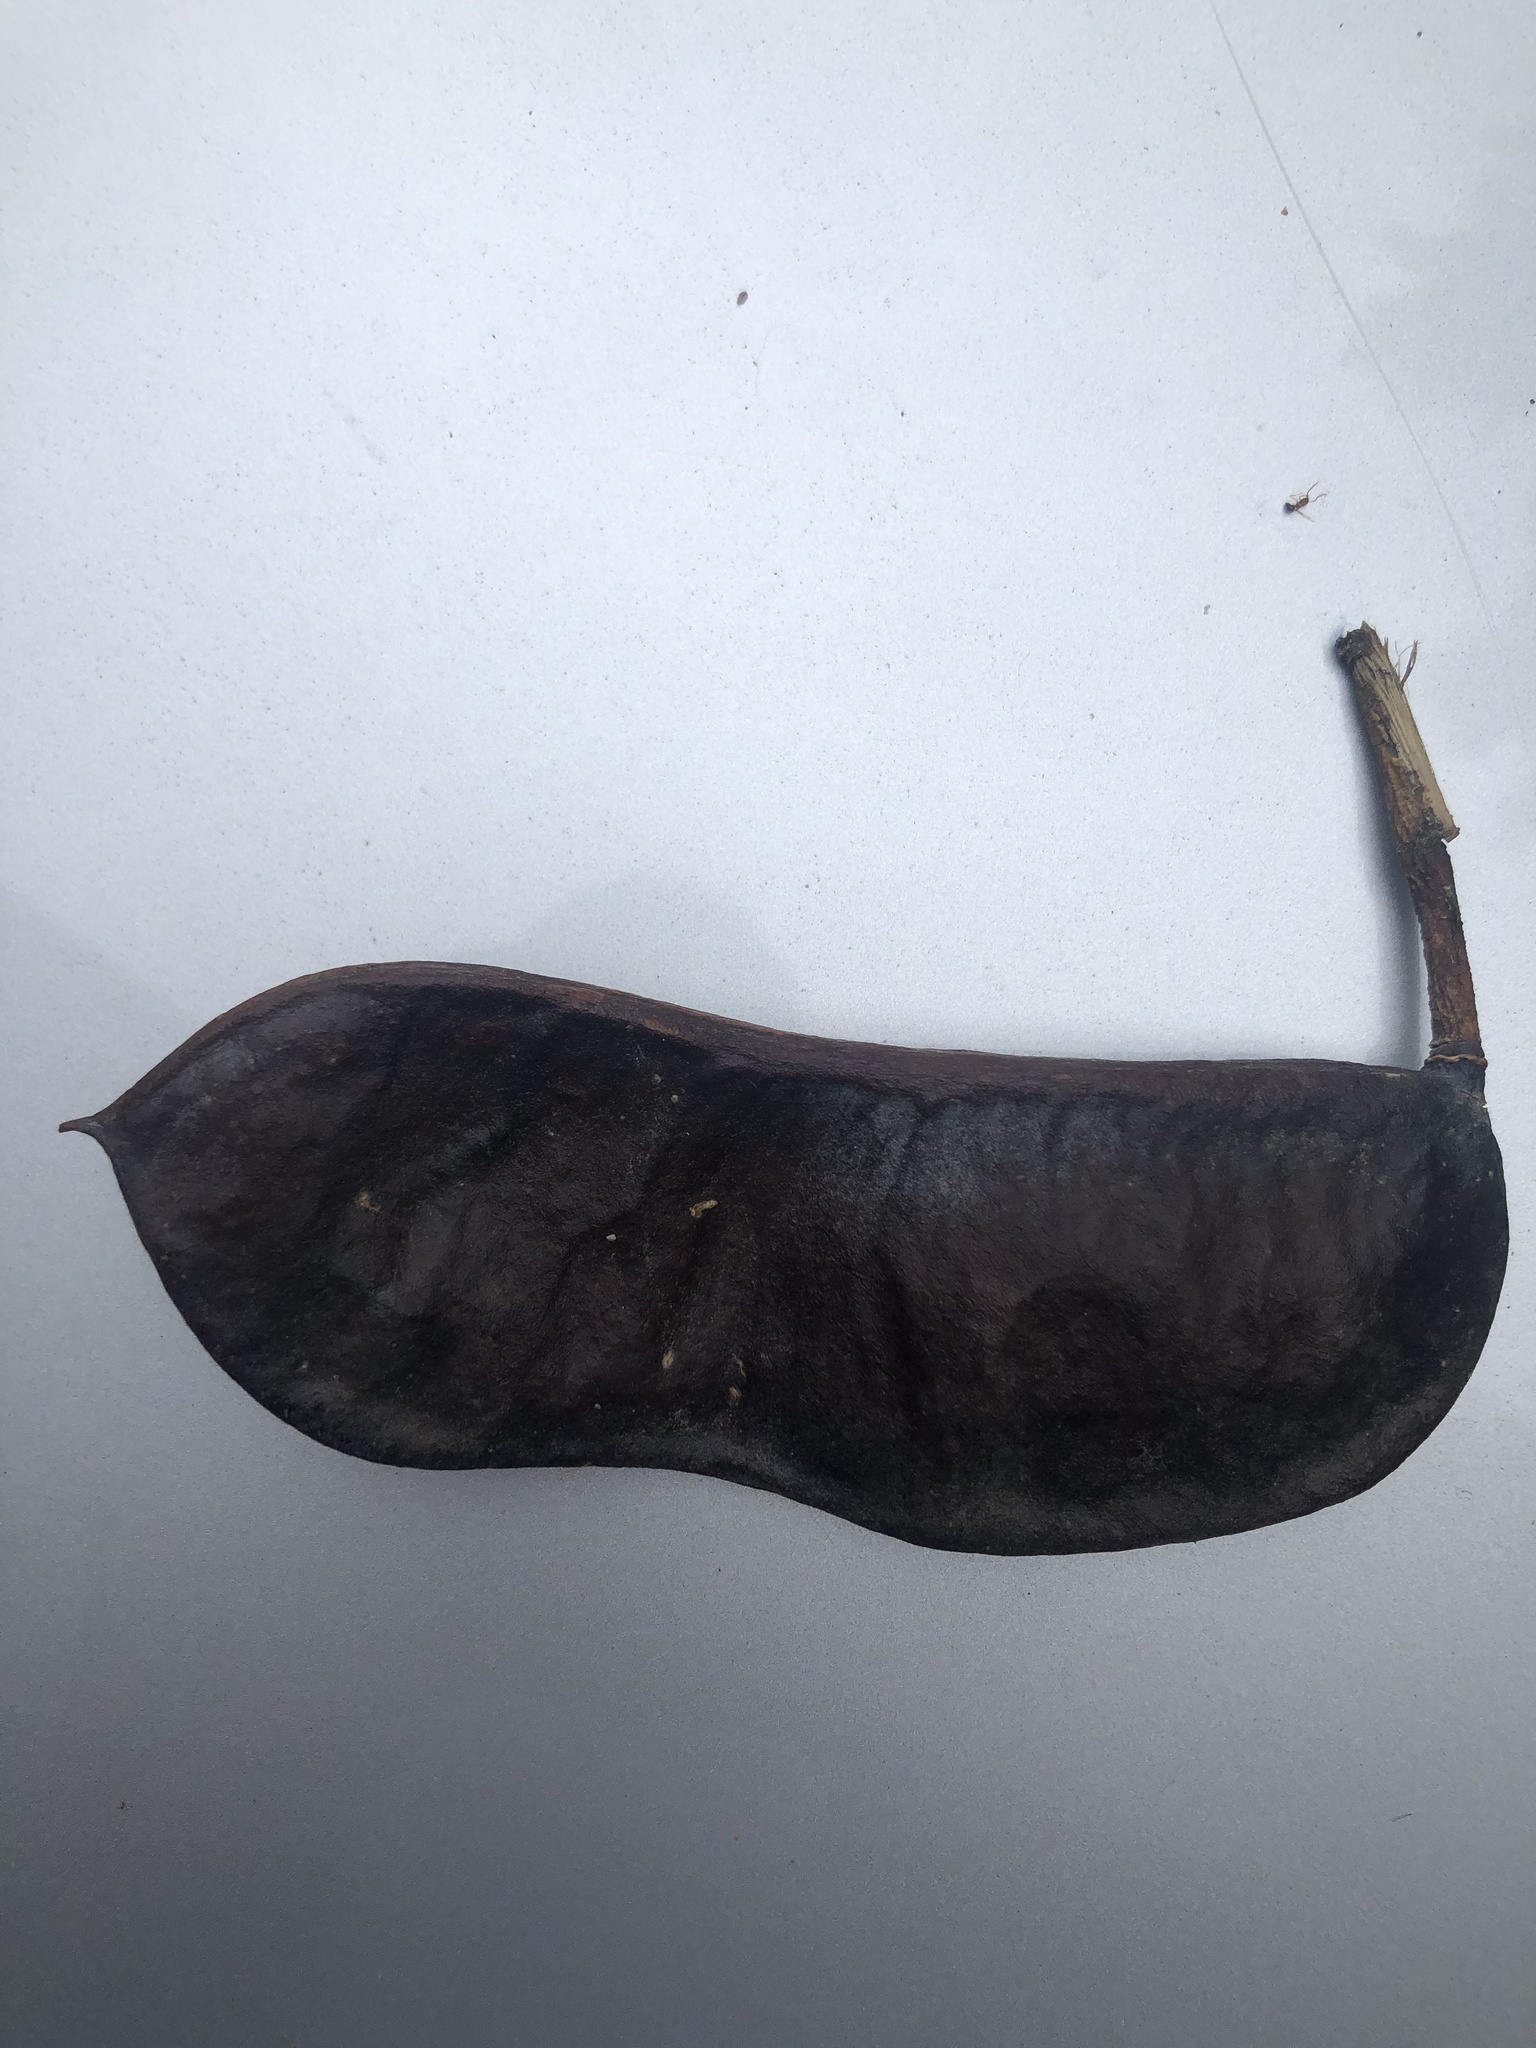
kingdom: Plantae
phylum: Tracheophyta
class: Magnoliopsida
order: Fabales
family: Fabaceae
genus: Gymnocladus
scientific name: Gymnocladus dioicus
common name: Kentucky coffee-tree
